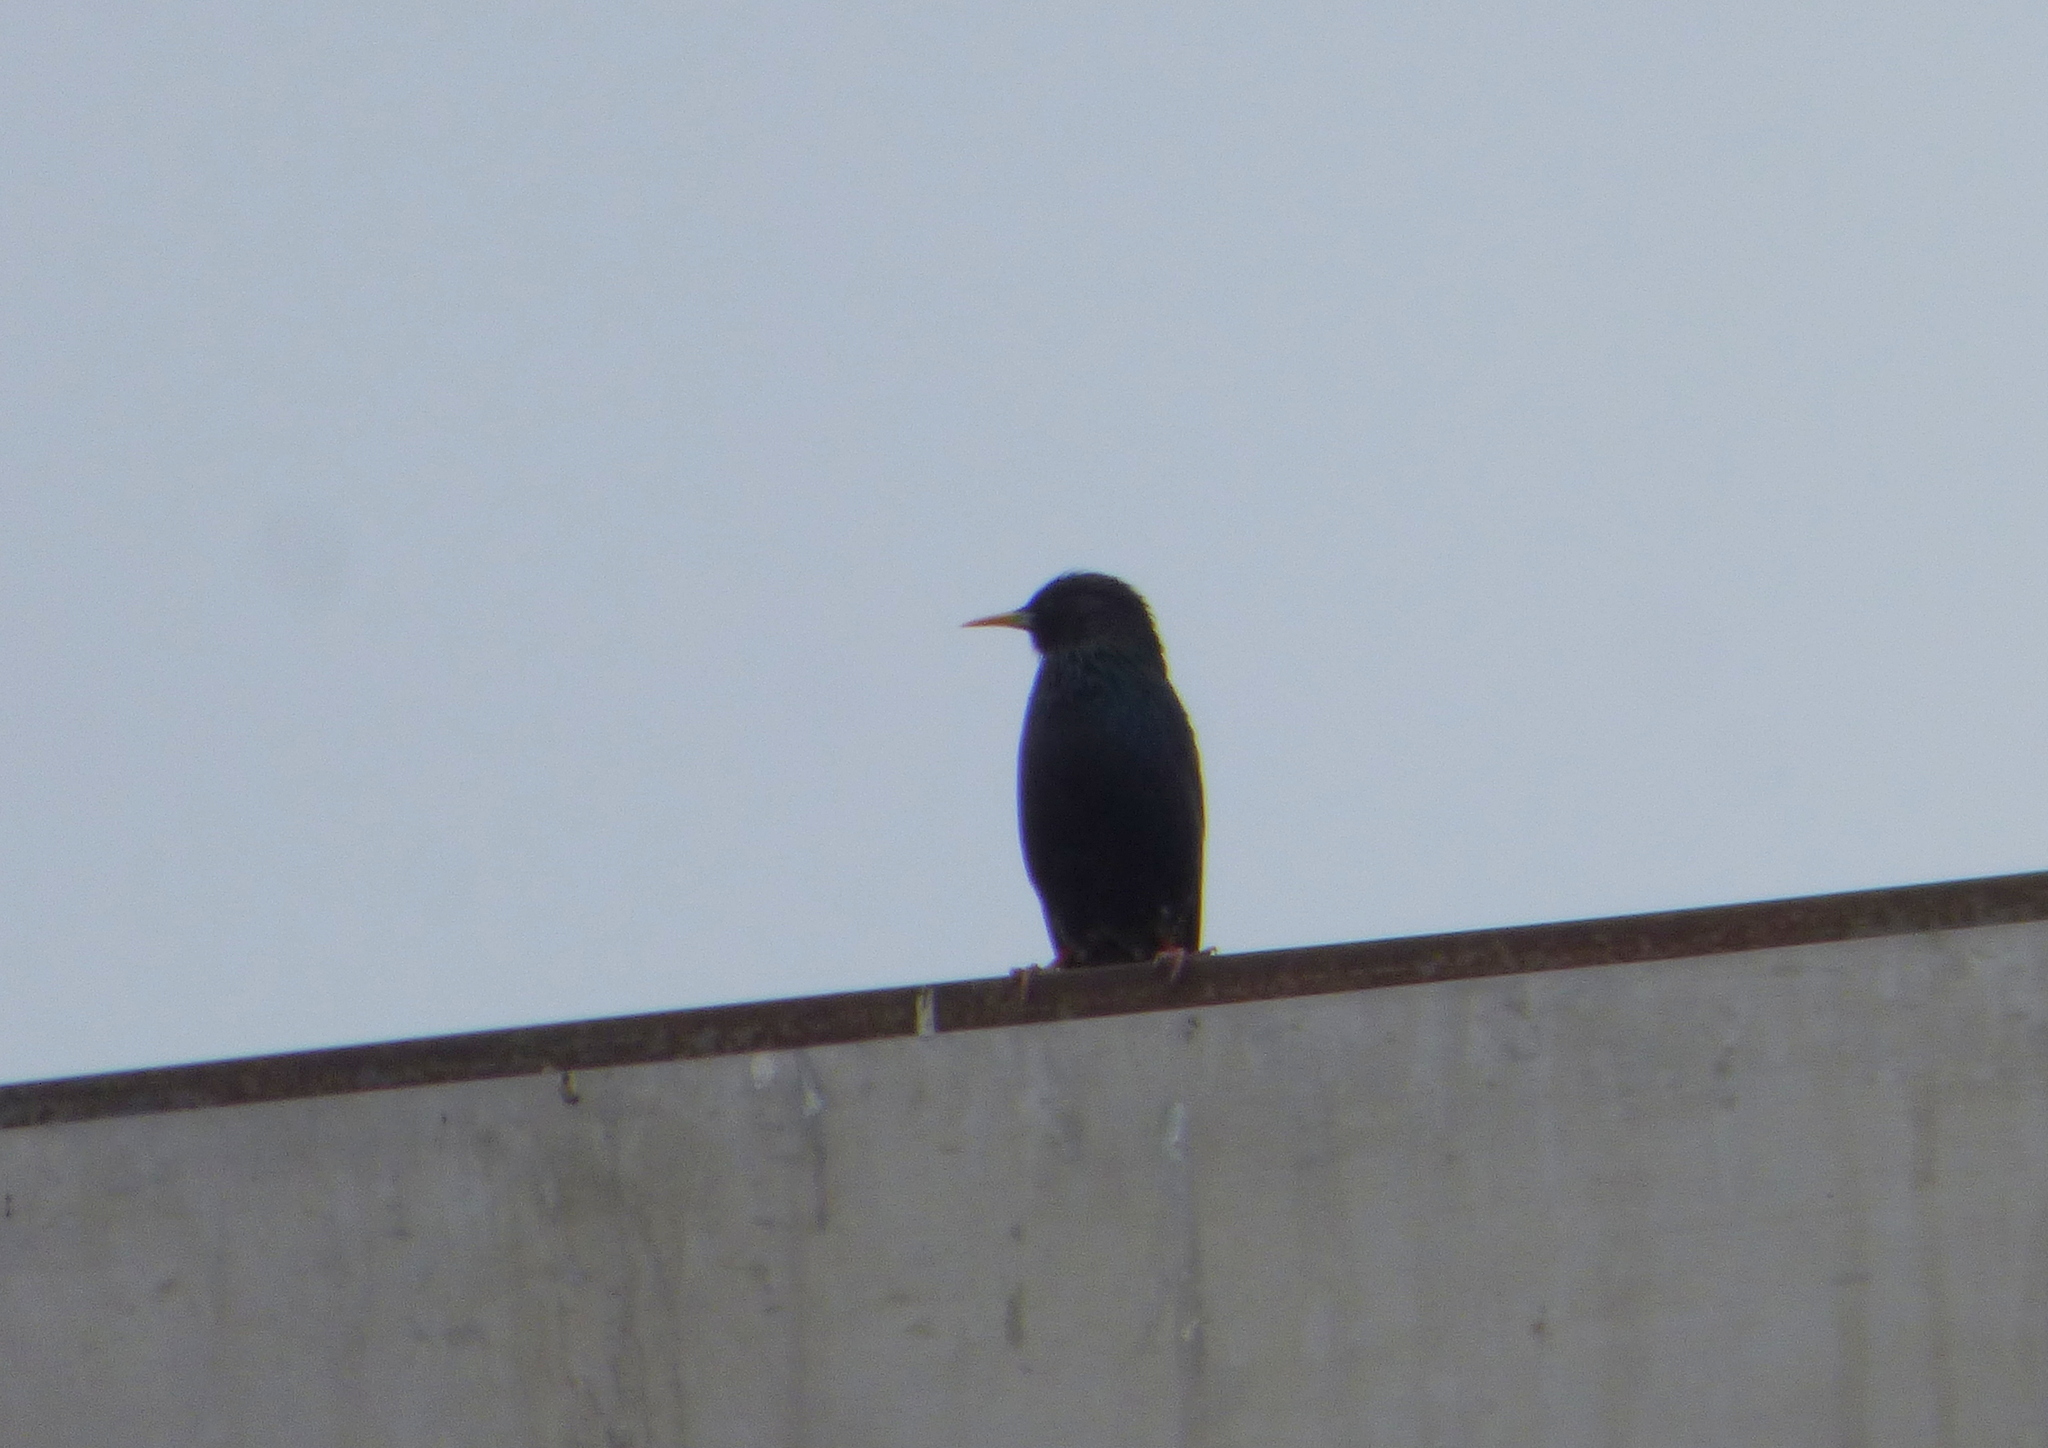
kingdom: Animalia
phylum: Chordata
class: Aves
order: Passeriformes
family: Sturnidae
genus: Sturnus
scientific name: Sturnus vulgaris
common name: Common starling
